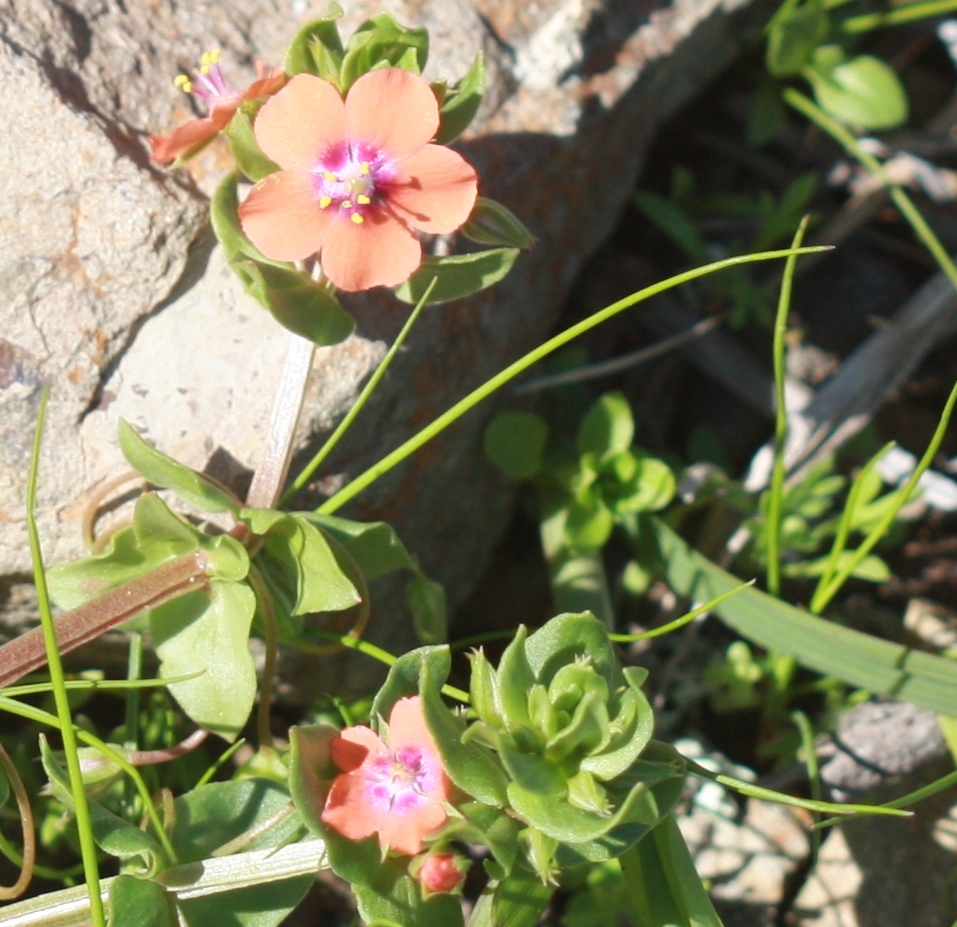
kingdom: Plantae
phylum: Tracheophyta
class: Magnoliopsida
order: Ericales
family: Primulaceae
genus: Lysimachia
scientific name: Lysimachia arvensis
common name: Scarlet pimpernel
